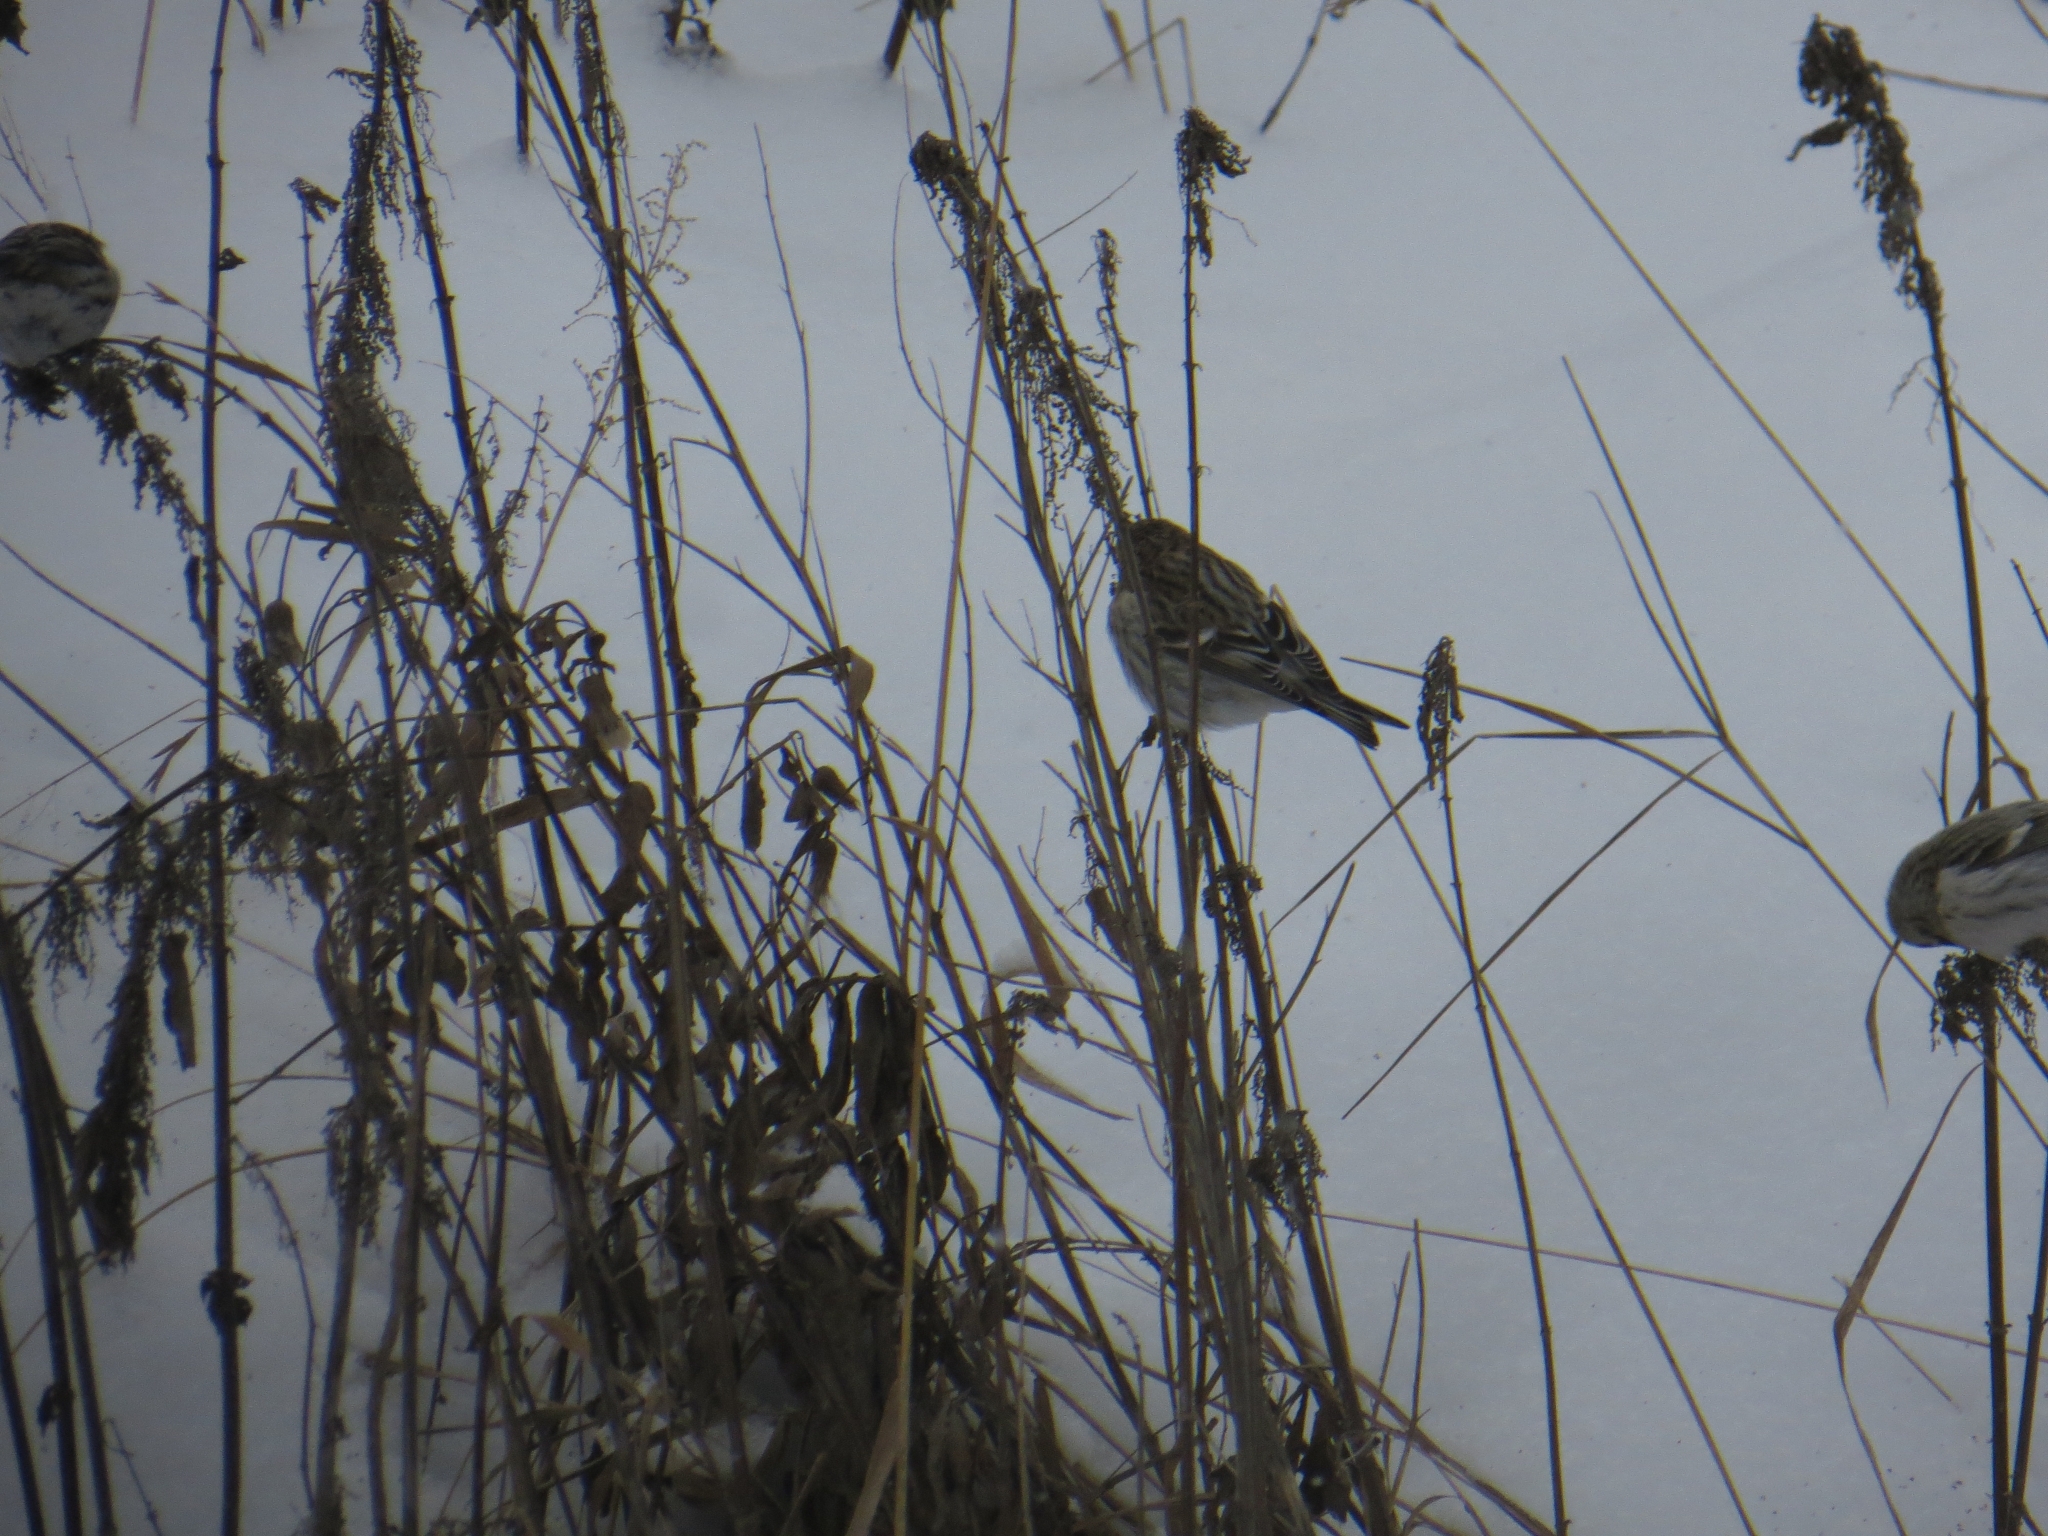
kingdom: Animalia
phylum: Chordata
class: Aves
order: Passeriformes
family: Fringillidae
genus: Acanthis
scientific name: Acanthis flammea
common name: Common redpoll
